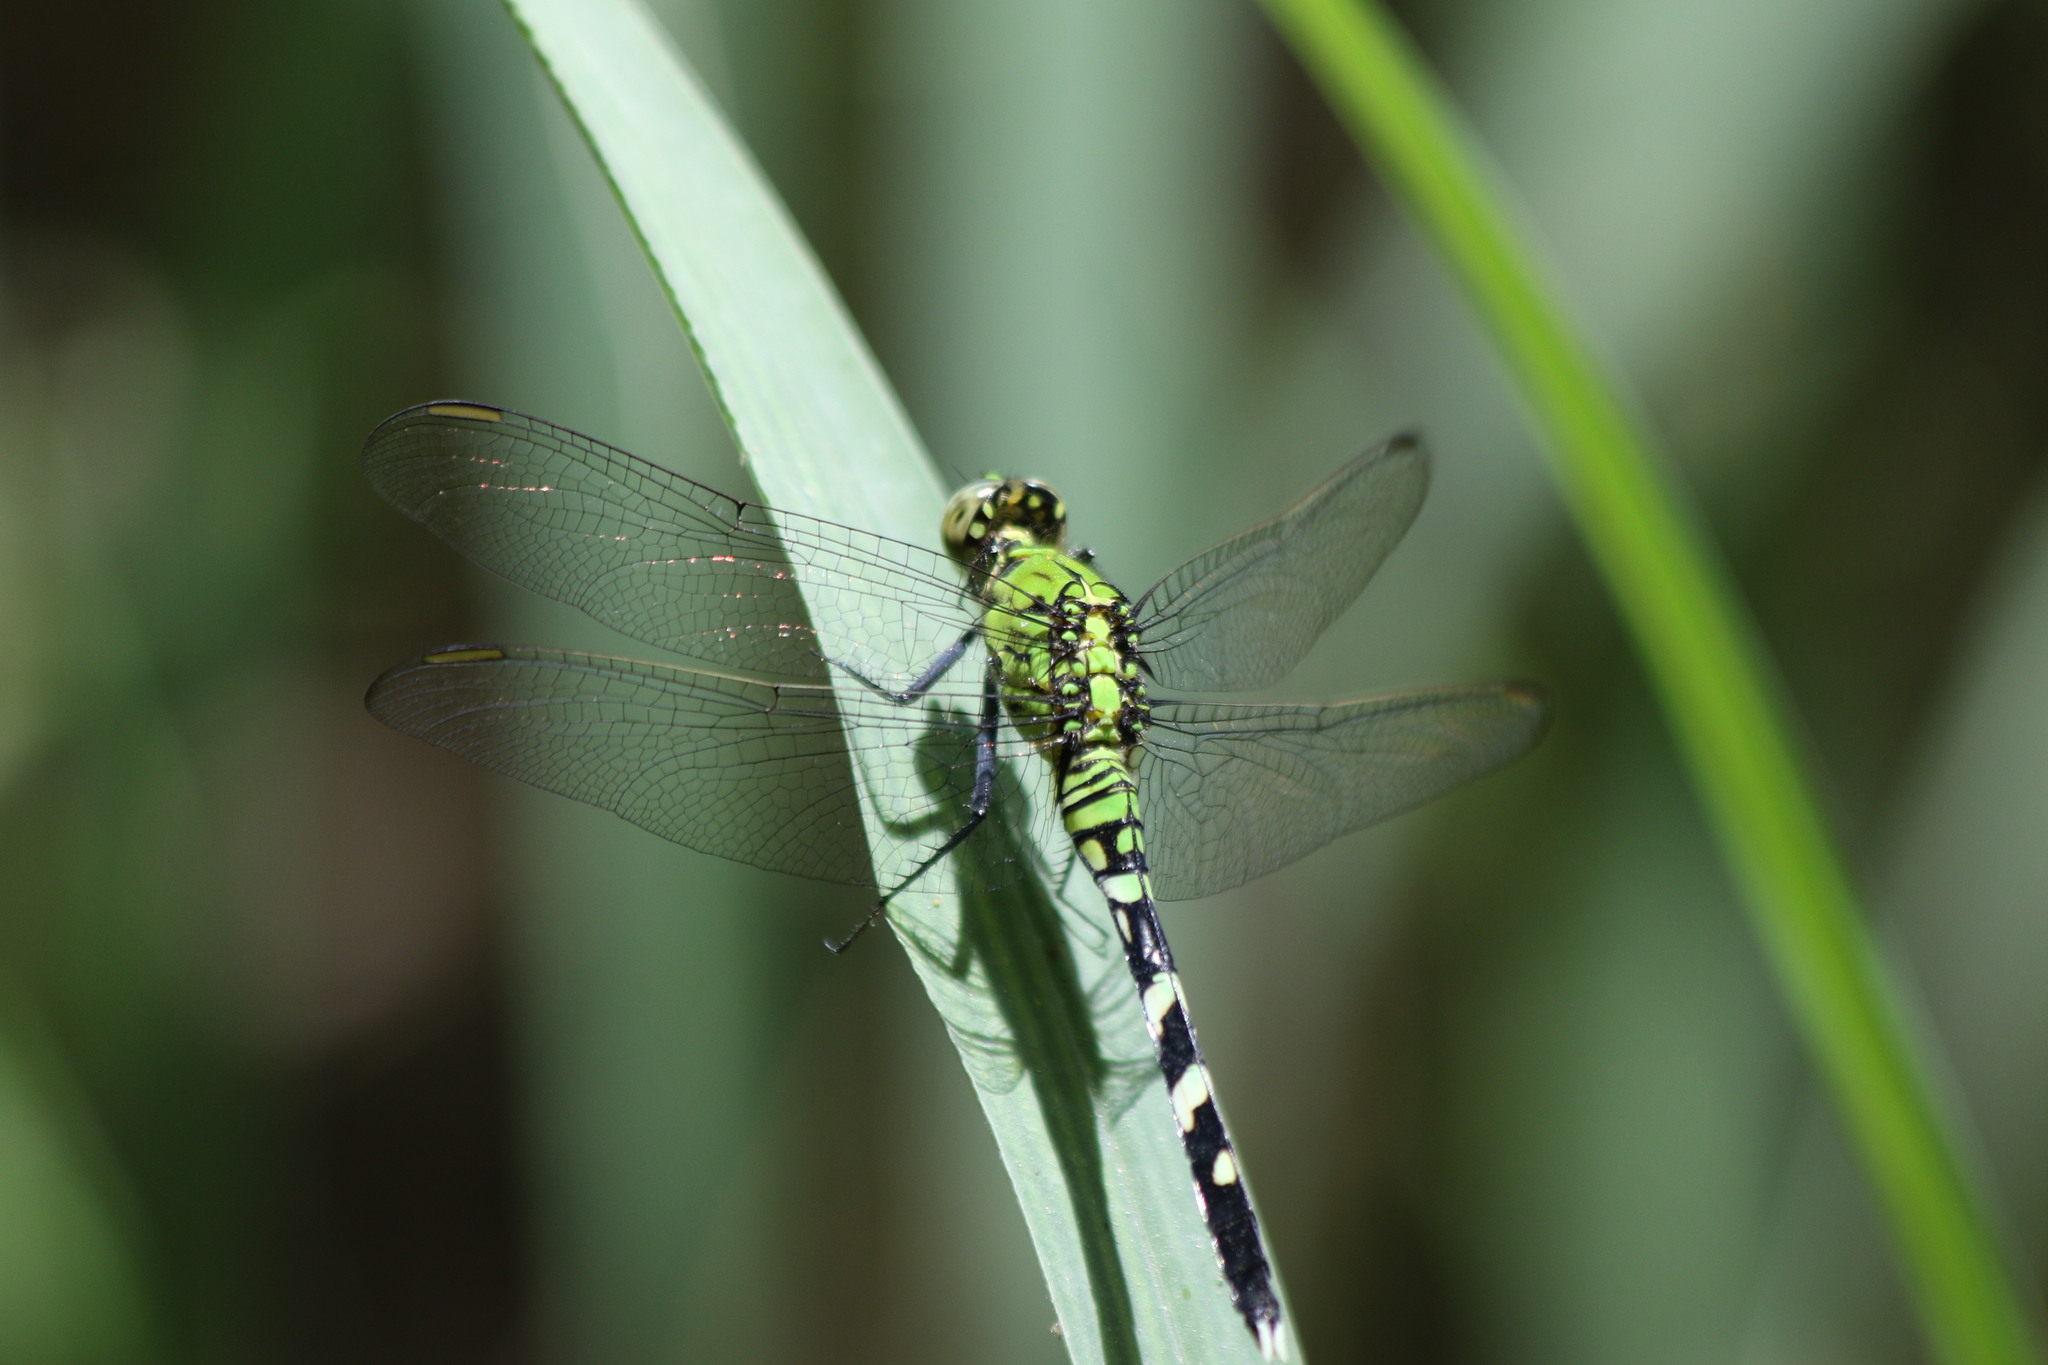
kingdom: Animalia
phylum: Arthropoda
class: Insecta
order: Odonata
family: Libellulidae
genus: Erythemis
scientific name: Erythemis simplicicollis
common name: Eastern pondhawk
